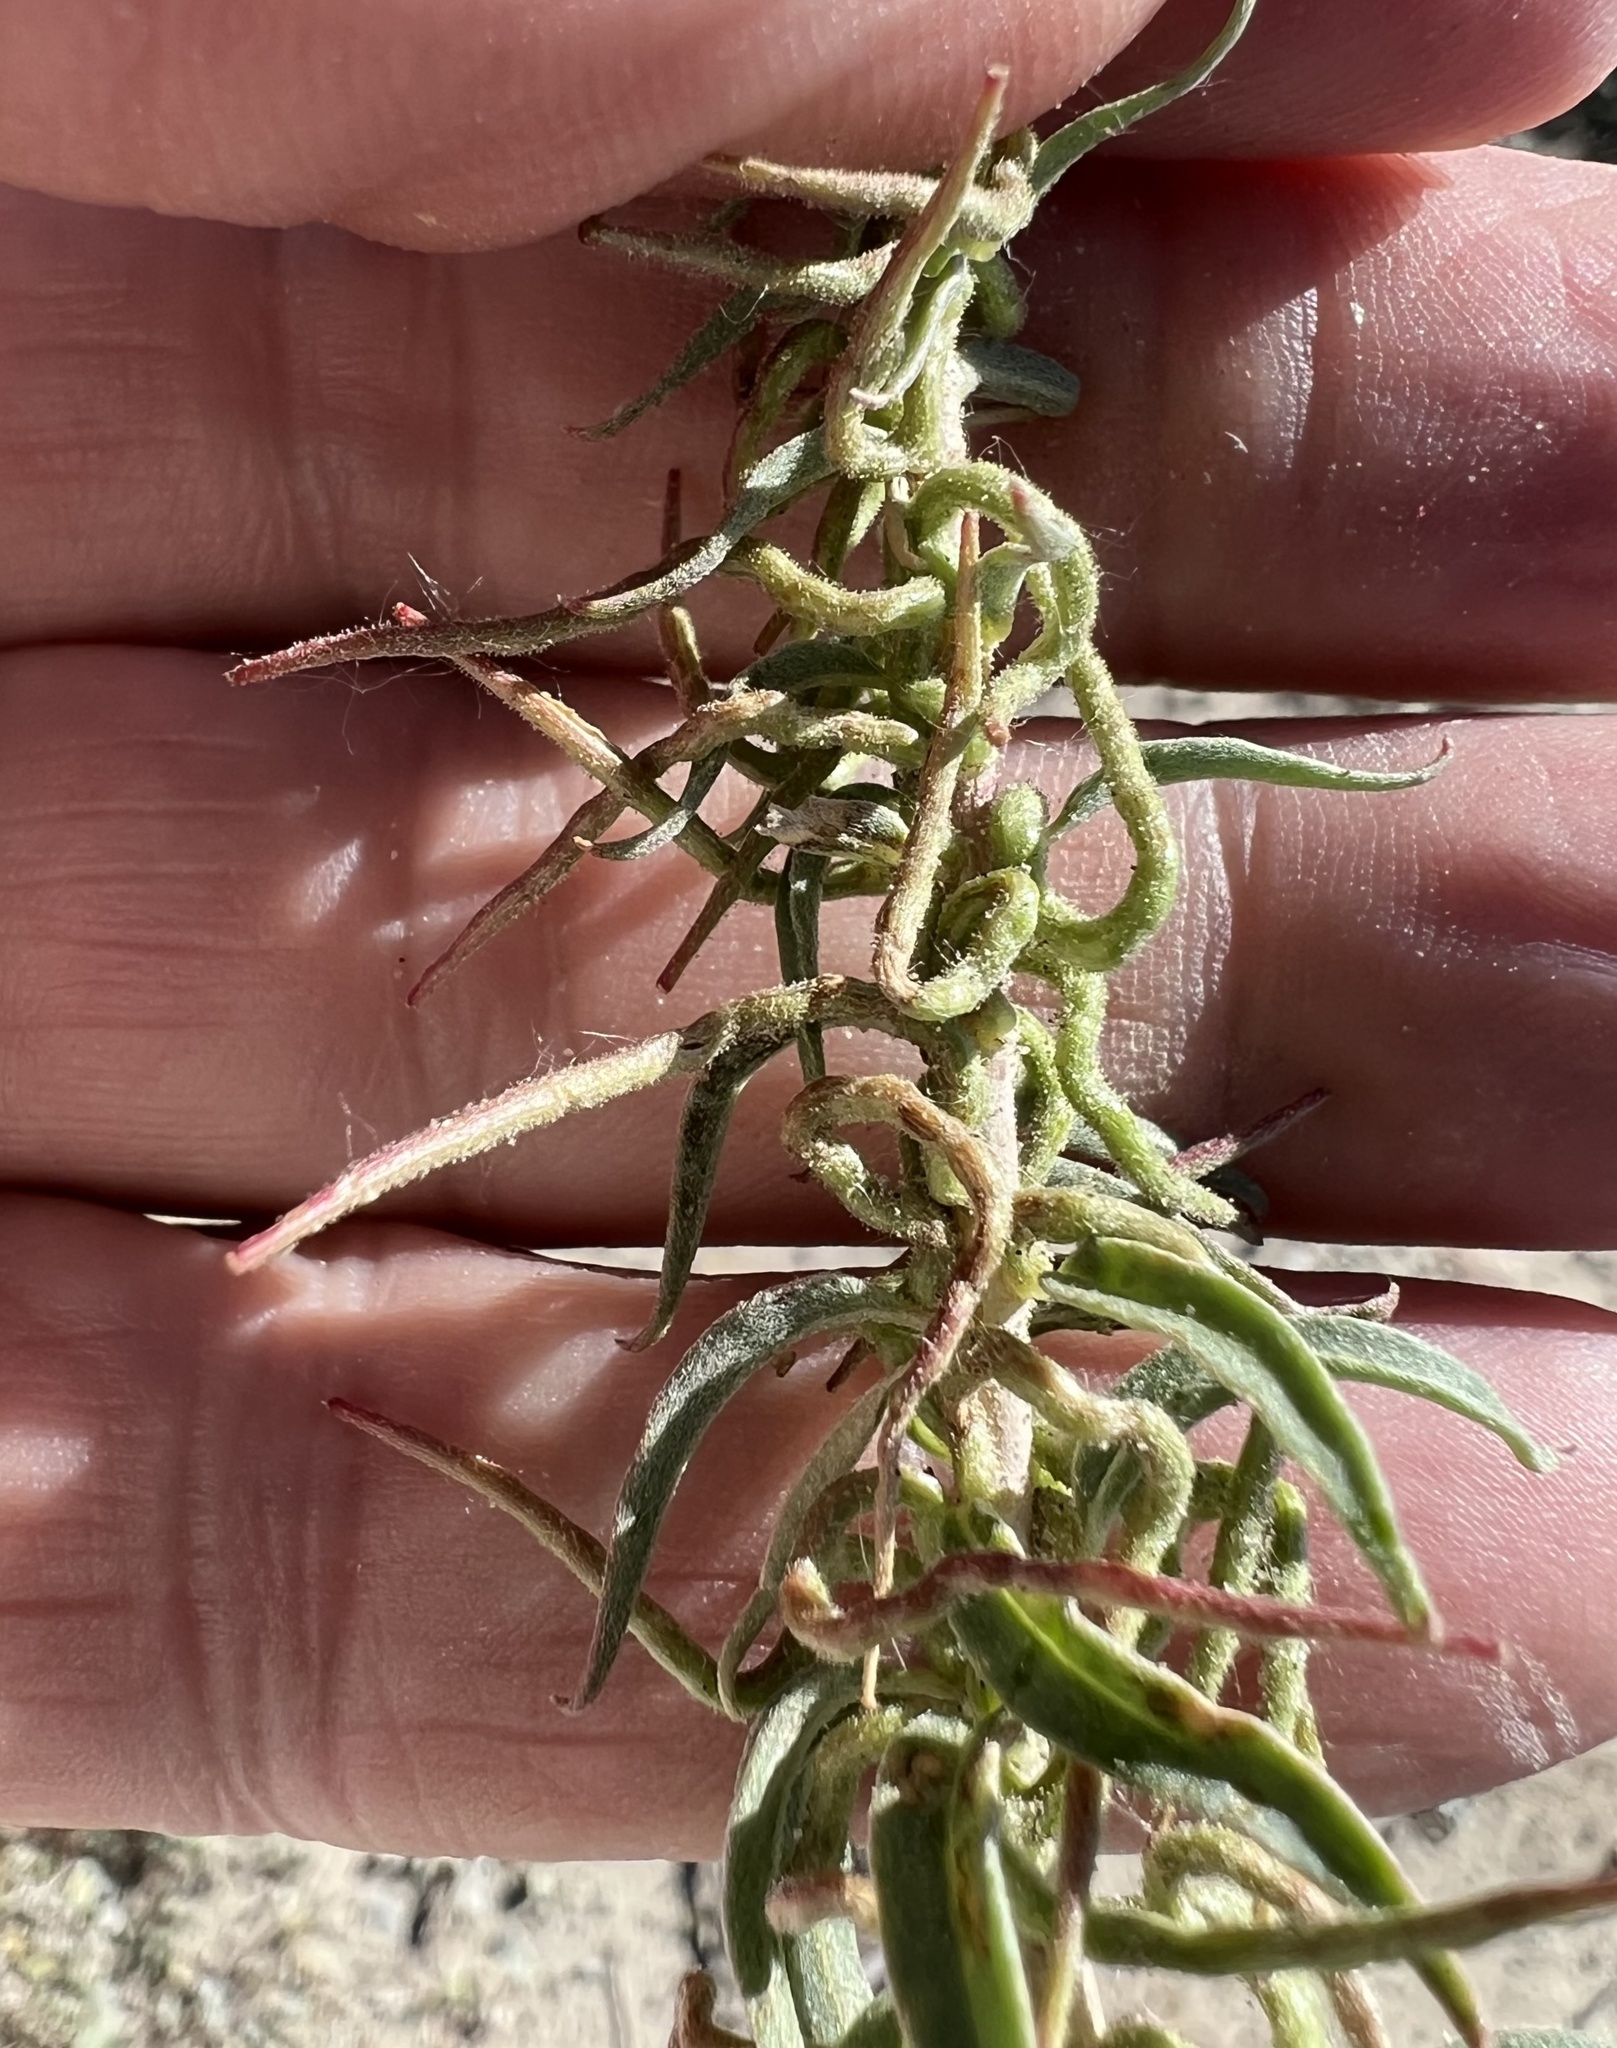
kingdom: Plantae
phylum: Tracheophyta
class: Magnoliopsida
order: Myrtales
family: Onagraceae
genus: Eremothera
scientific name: Eremothera boothii
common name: Booth's evening primrose
